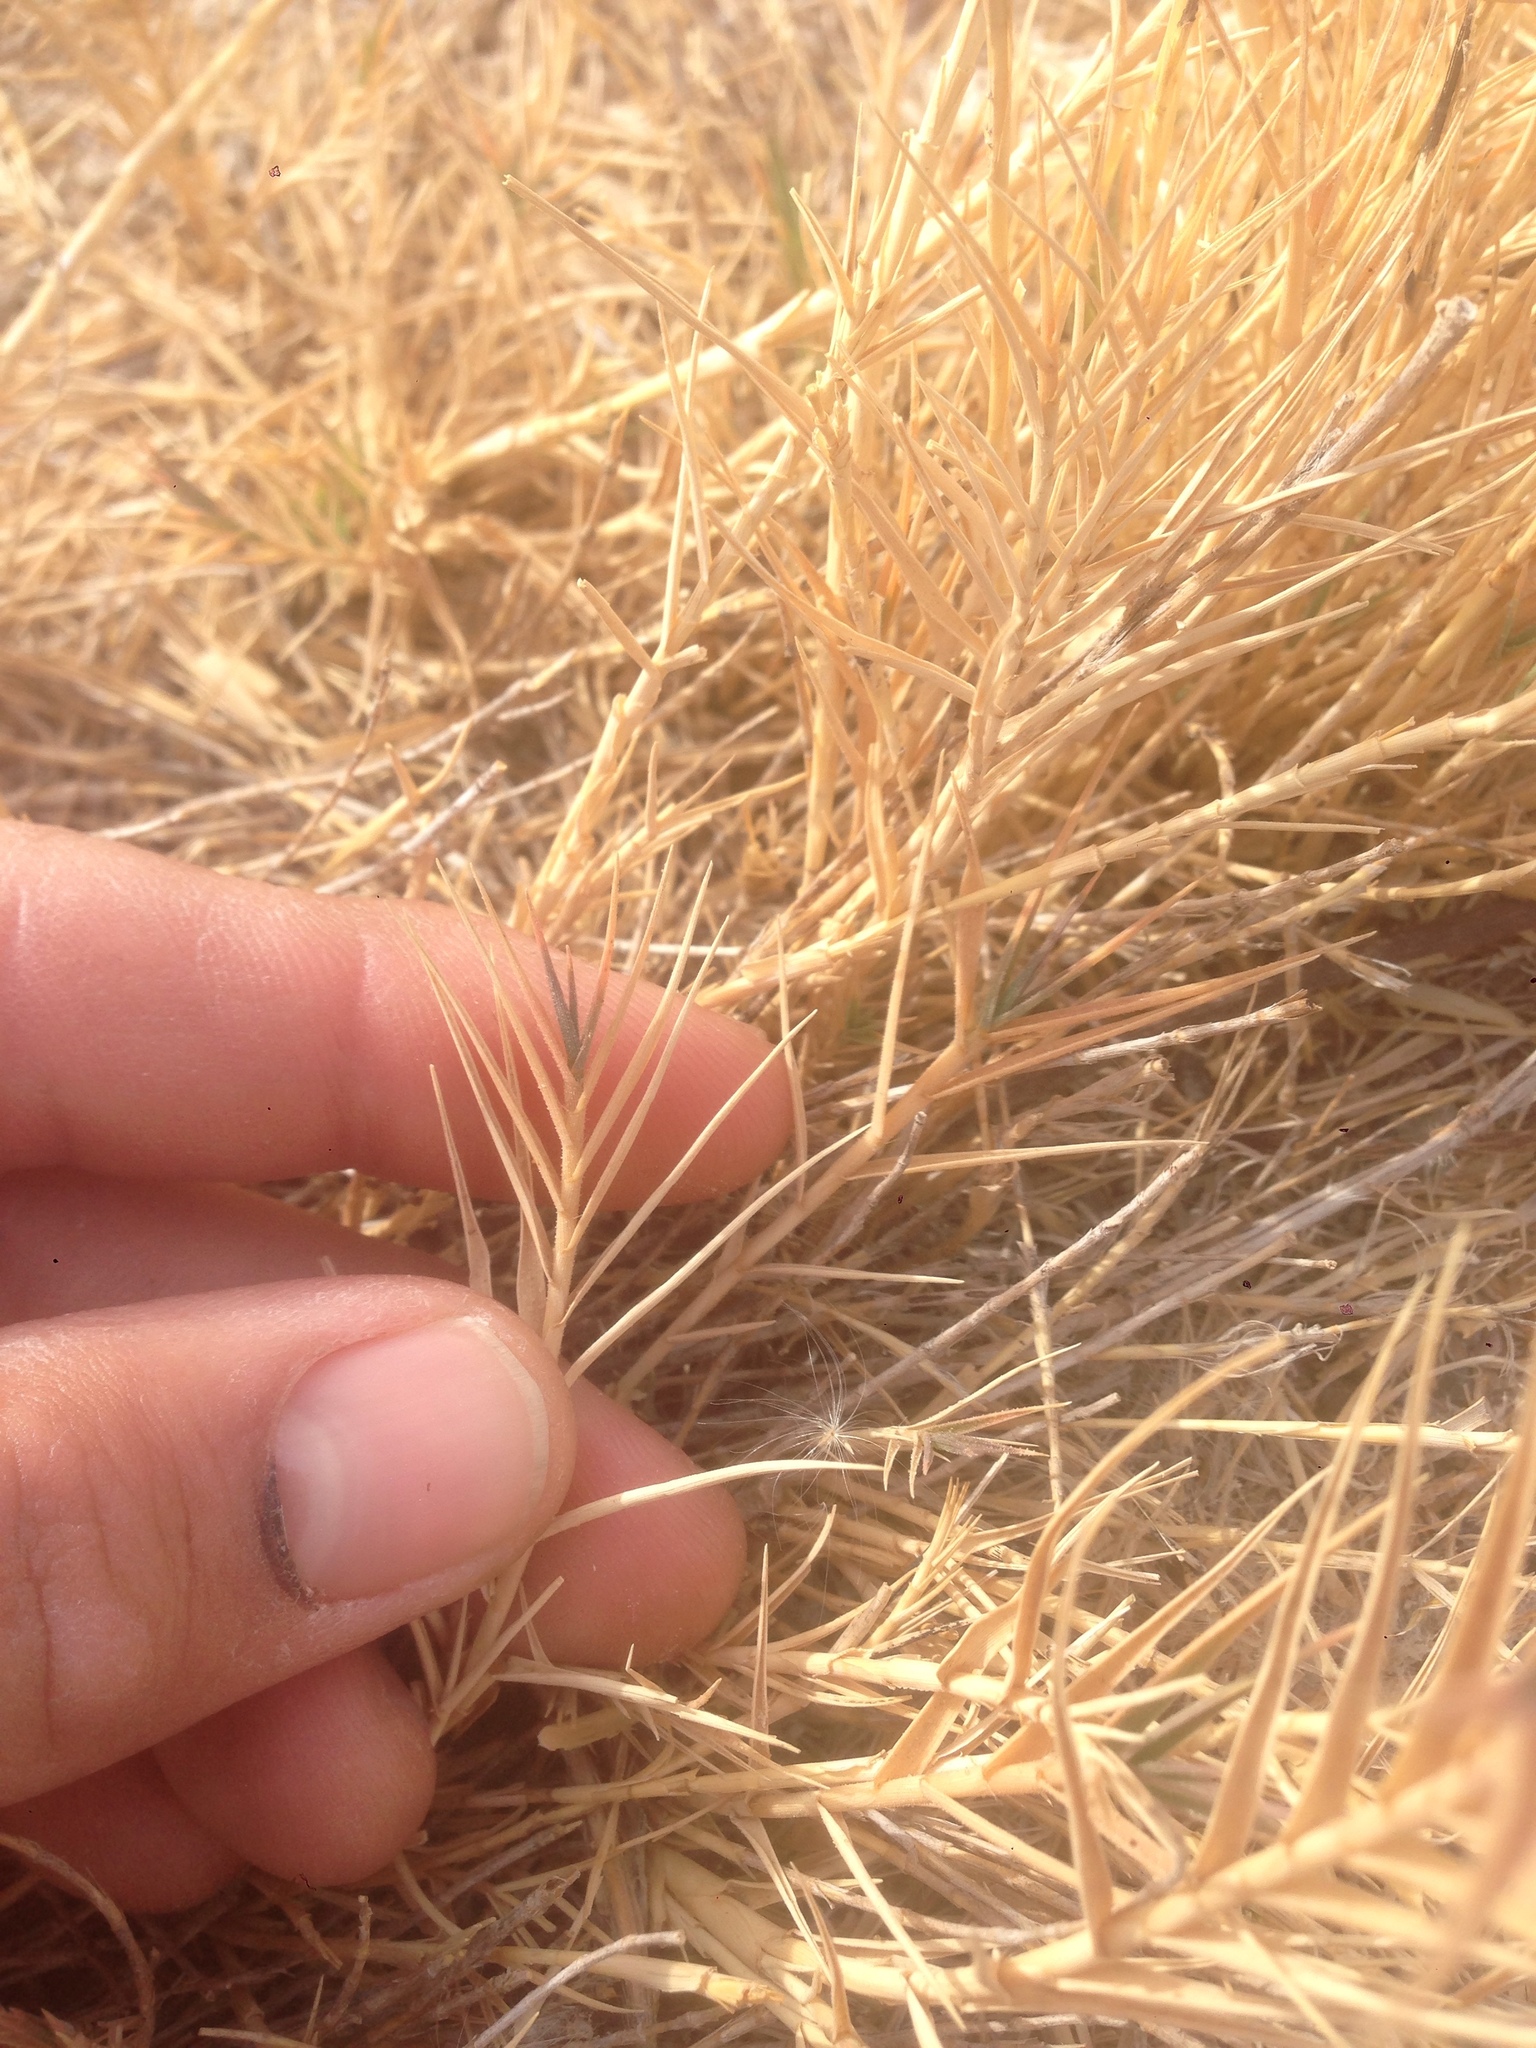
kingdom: Plantae
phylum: Tracheophyta
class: Liliopsida
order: Poales
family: Poaceae
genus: Distichlis
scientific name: Distichlis spicata
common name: Saltgrass
